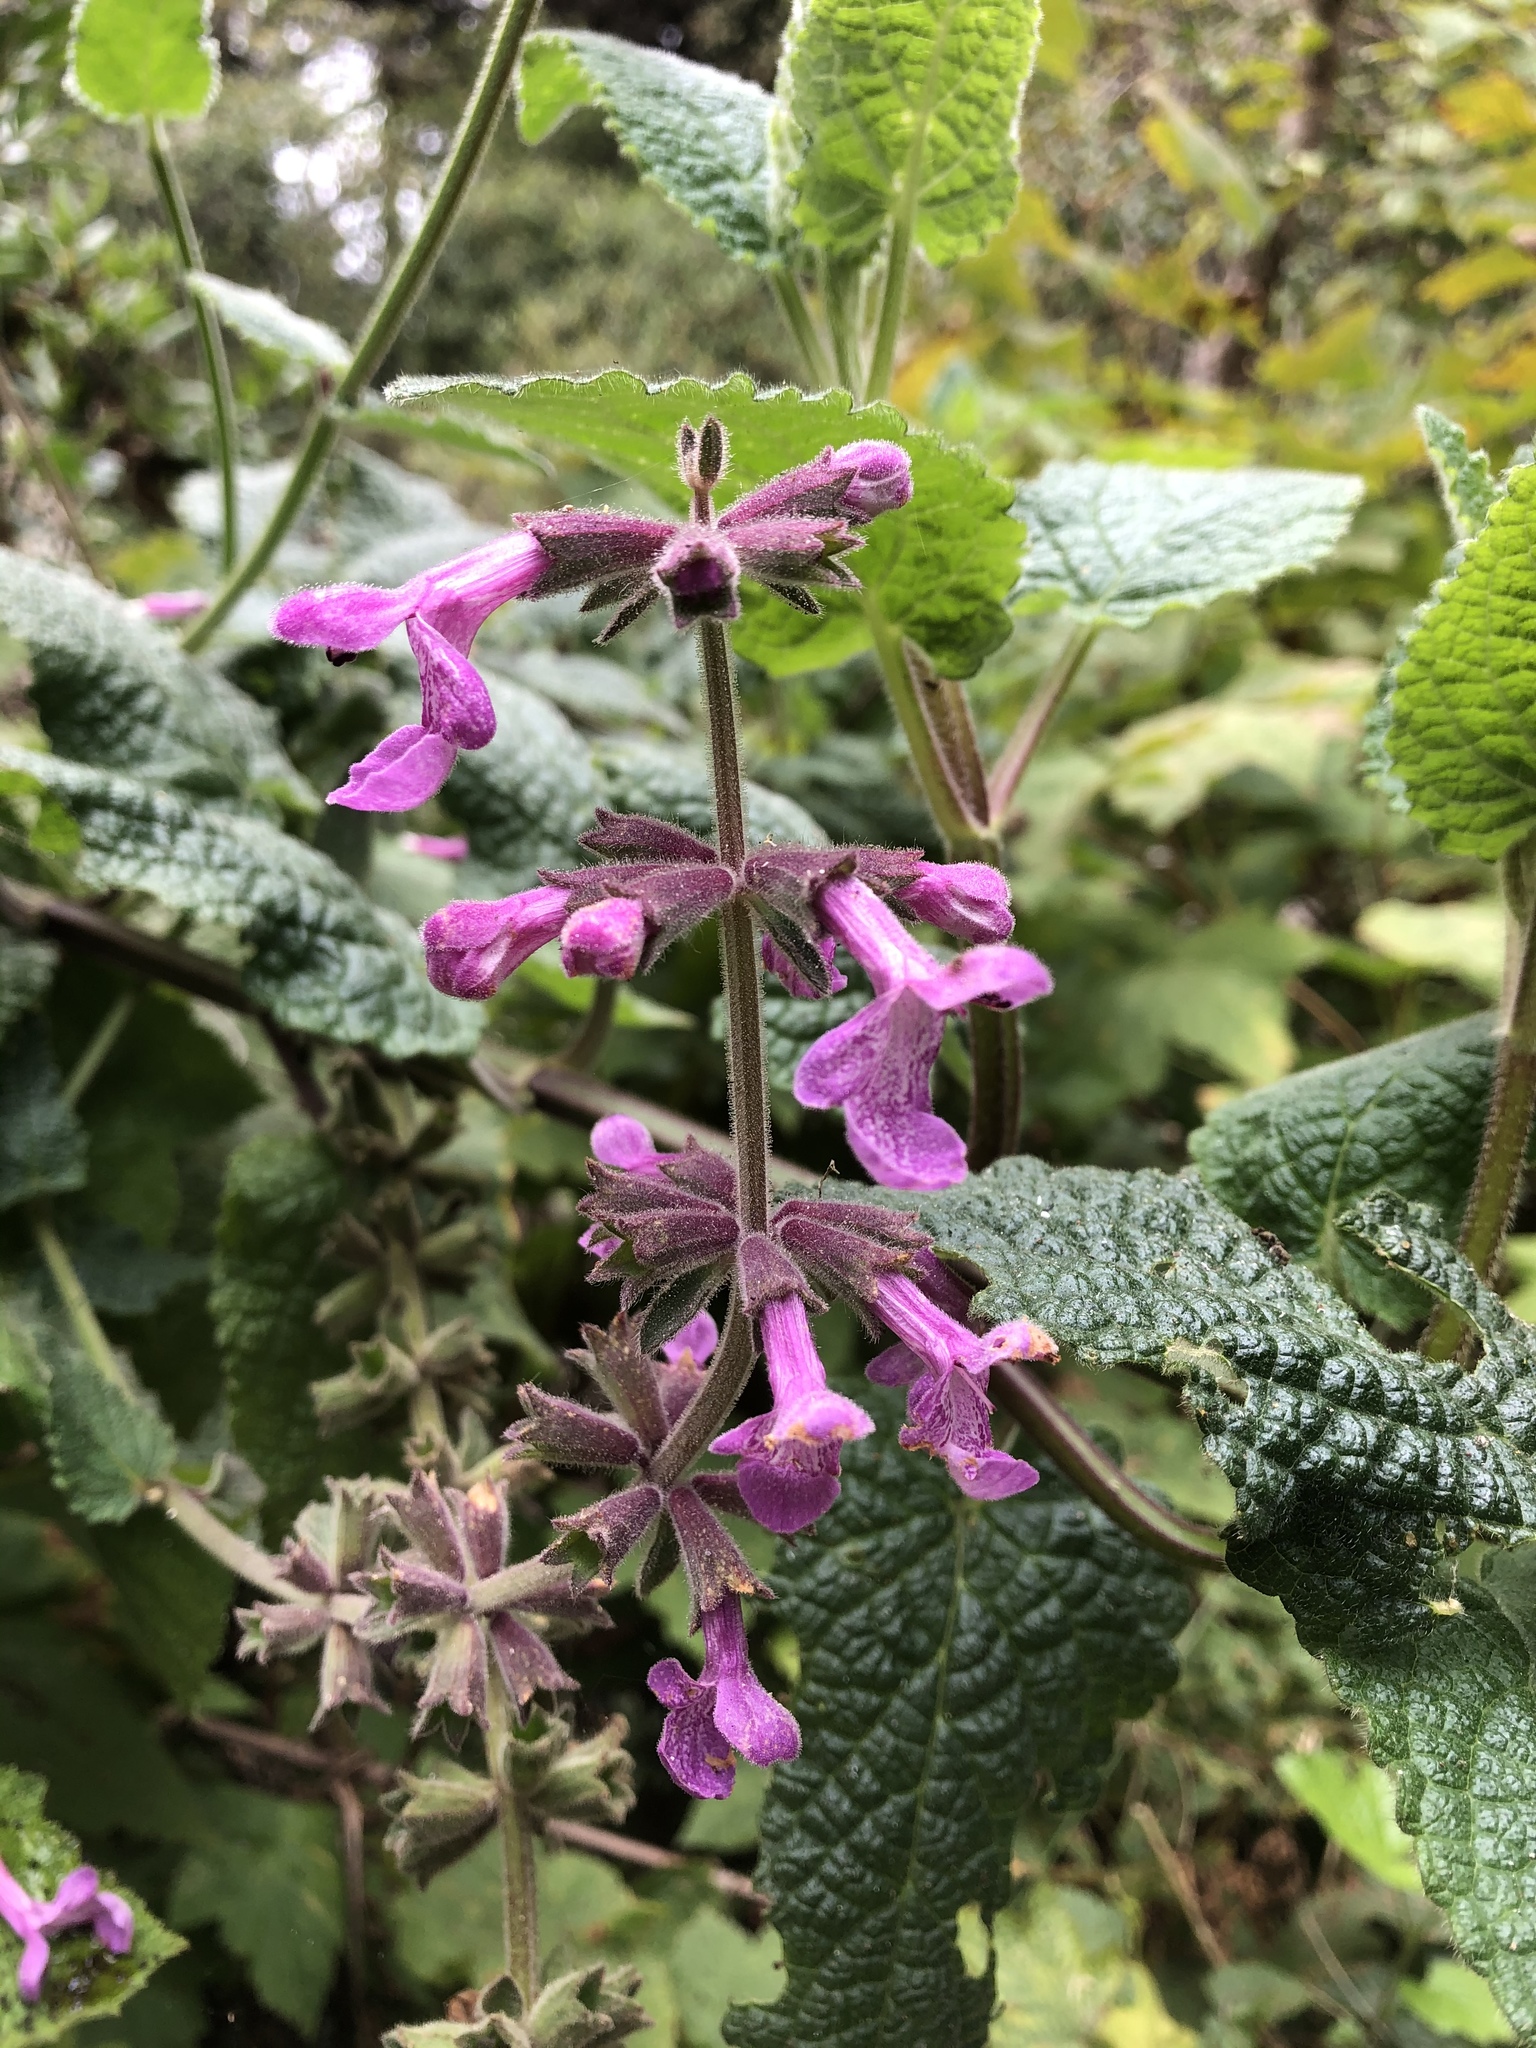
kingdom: Plantae
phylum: Tracheophyta
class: Magnoliopsida
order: Lamiales
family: Lamiaceae
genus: Stachys
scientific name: Stachys chamissonis
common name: Coastal hedge-nettle
